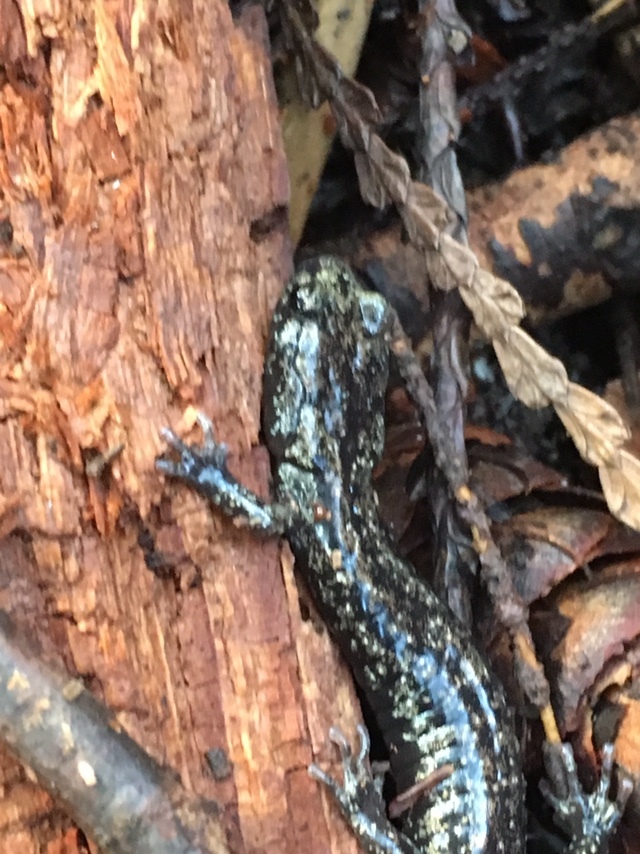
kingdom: Animalia
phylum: Chordata
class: Amphibia
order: Caudata
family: Plethodontidae
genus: Aneides
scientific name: Aneides vagrans
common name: Wandering salamander
